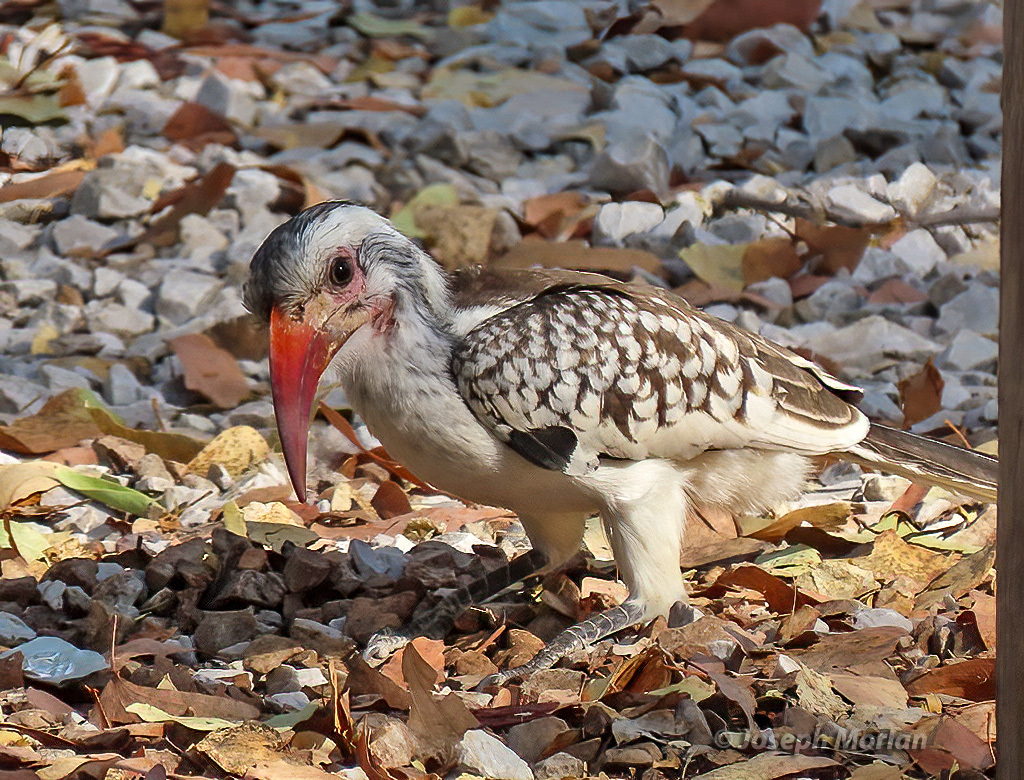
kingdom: Animalia
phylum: Chordata
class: Aves
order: Bucerotiformes
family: Bucerotidae
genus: Tockus
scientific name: Tockus rufirostris
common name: Southern red-billed hornbill
